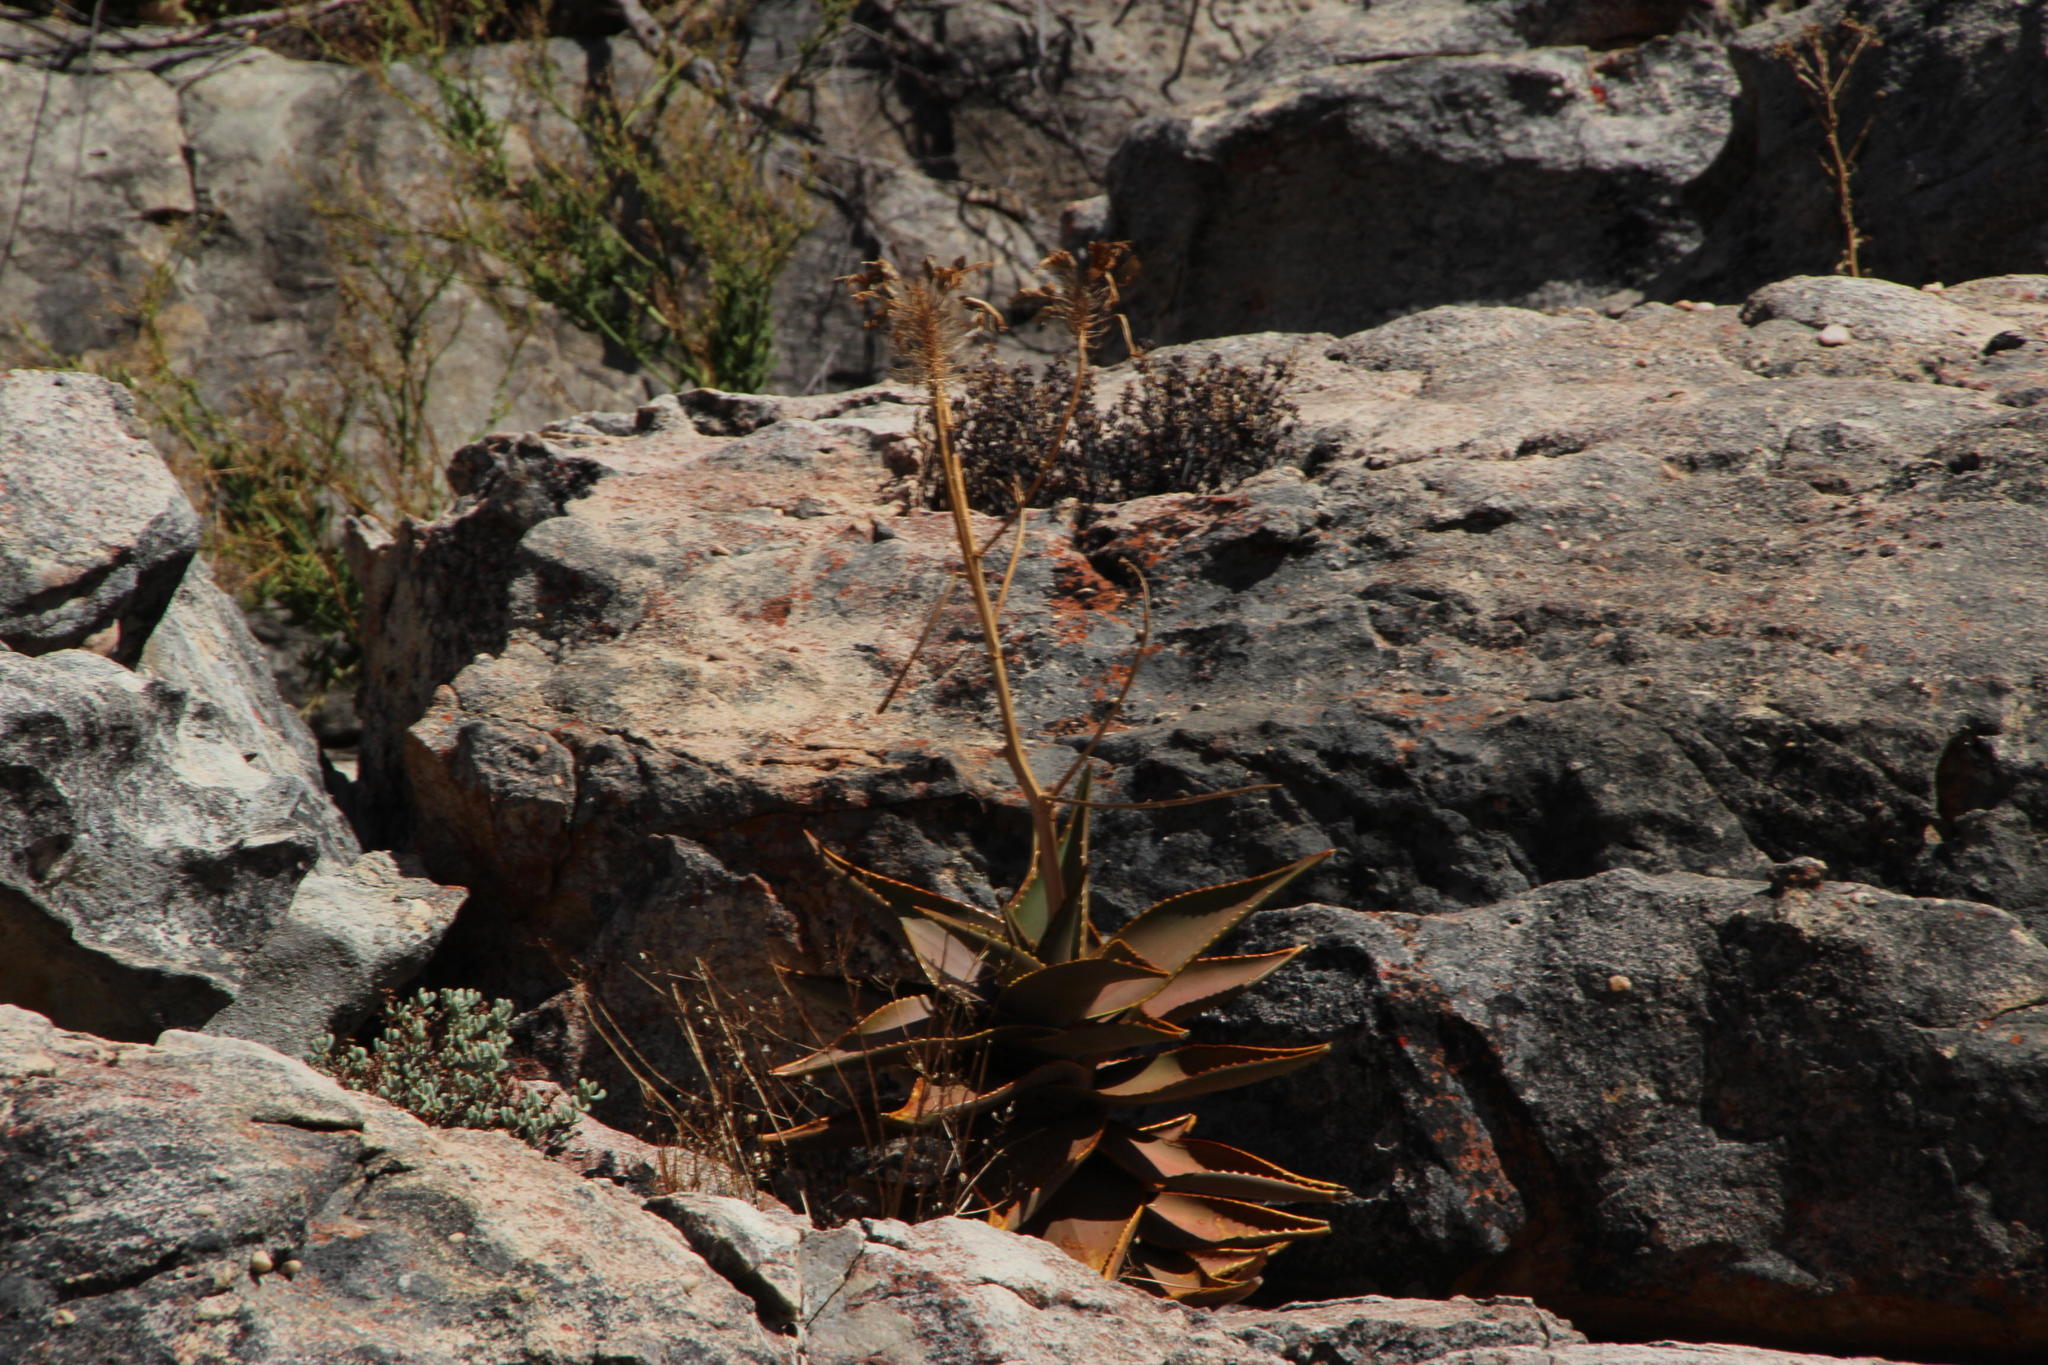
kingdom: Plantae
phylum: Tracheophyta
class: Liliopsida
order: Asparagales
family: Asphodelaceae
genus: Aloe
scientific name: Aloe perfoliata
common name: Mitra aloe
